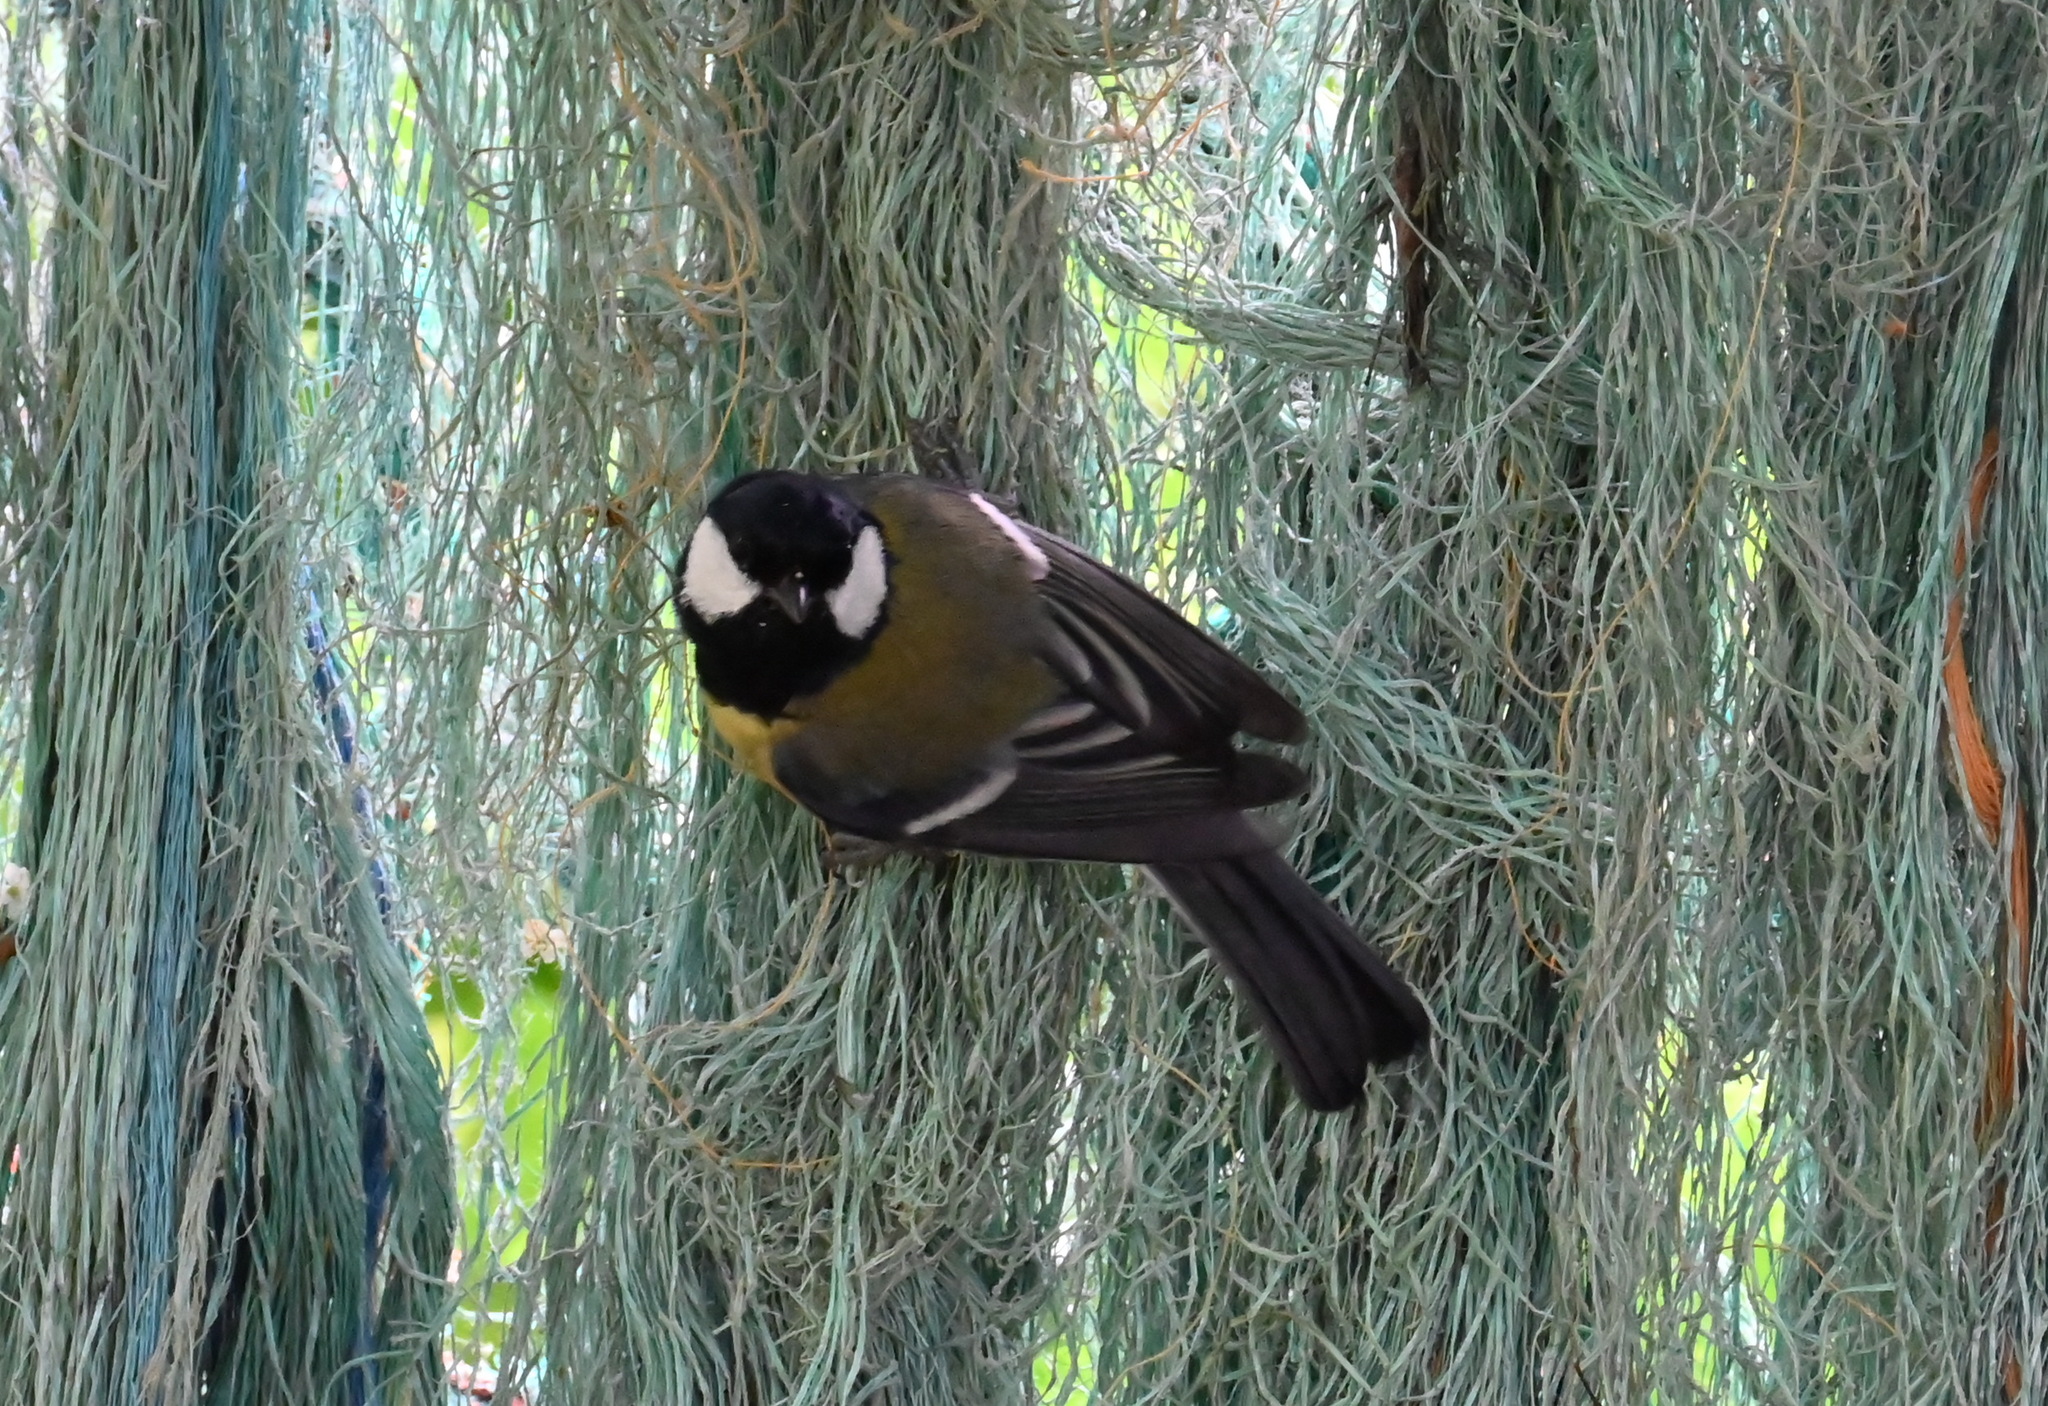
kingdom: Animalia
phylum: Chordata
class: Aves
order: Passeriformes
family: Paridae
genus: Parus
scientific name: Parus major
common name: Great tit
